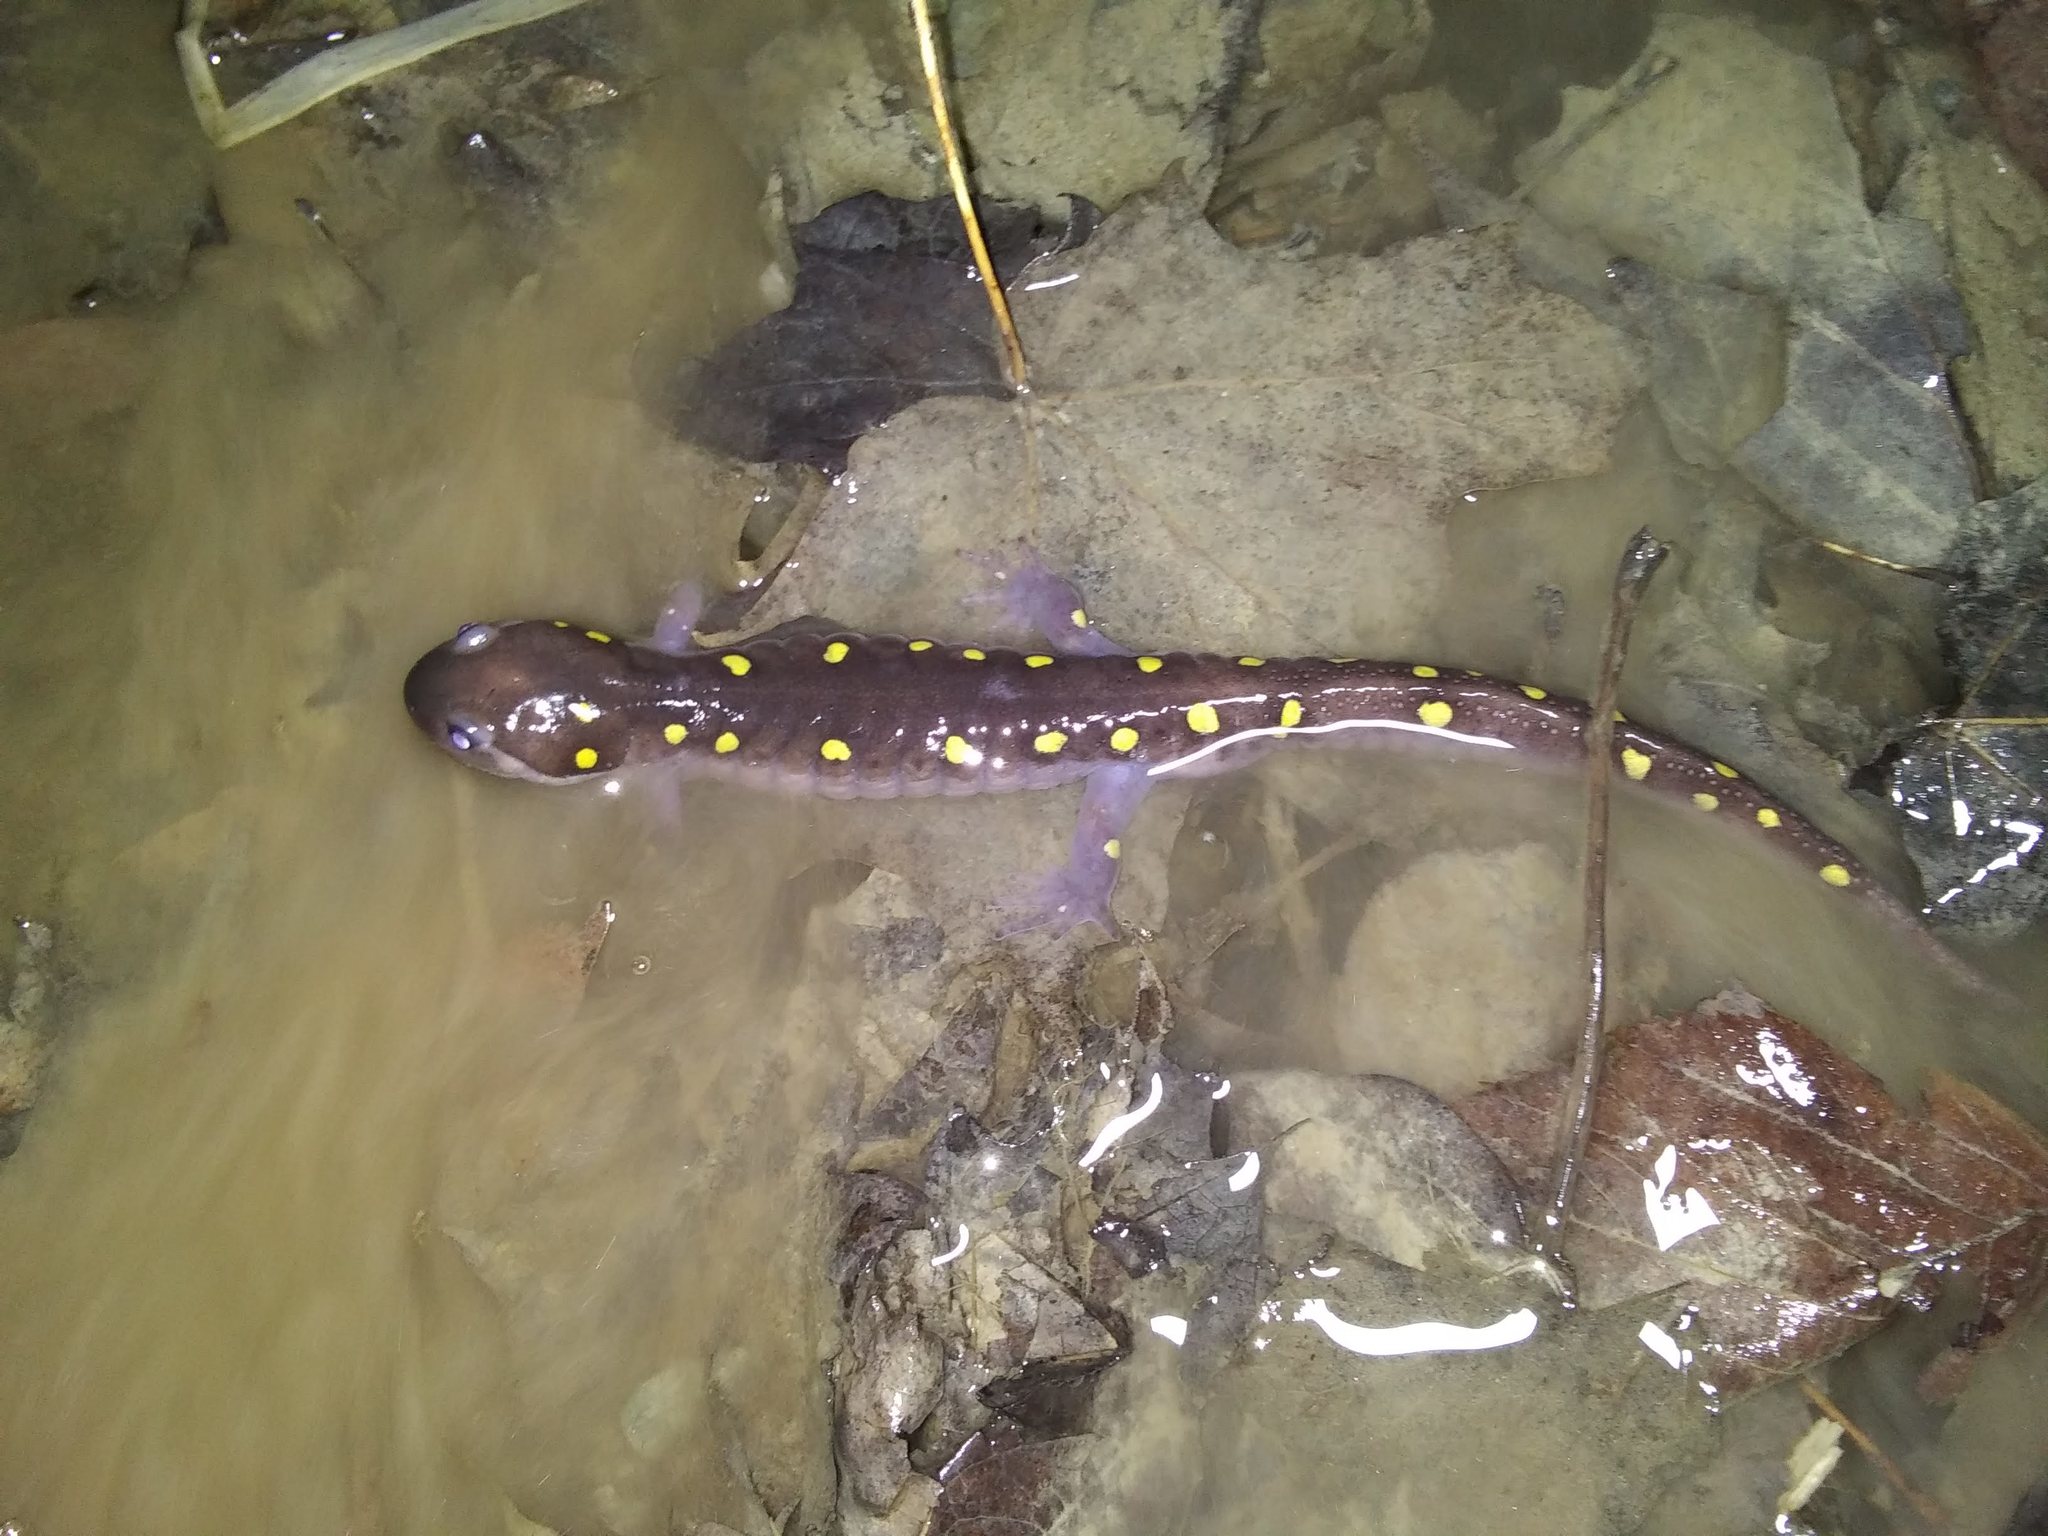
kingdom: Animalia
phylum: Chordata
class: Amphibia
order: Caudata
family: Ambystomatidae
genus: Ambystoma
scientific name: Ambystoma maculatum
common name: Spotted salamander
